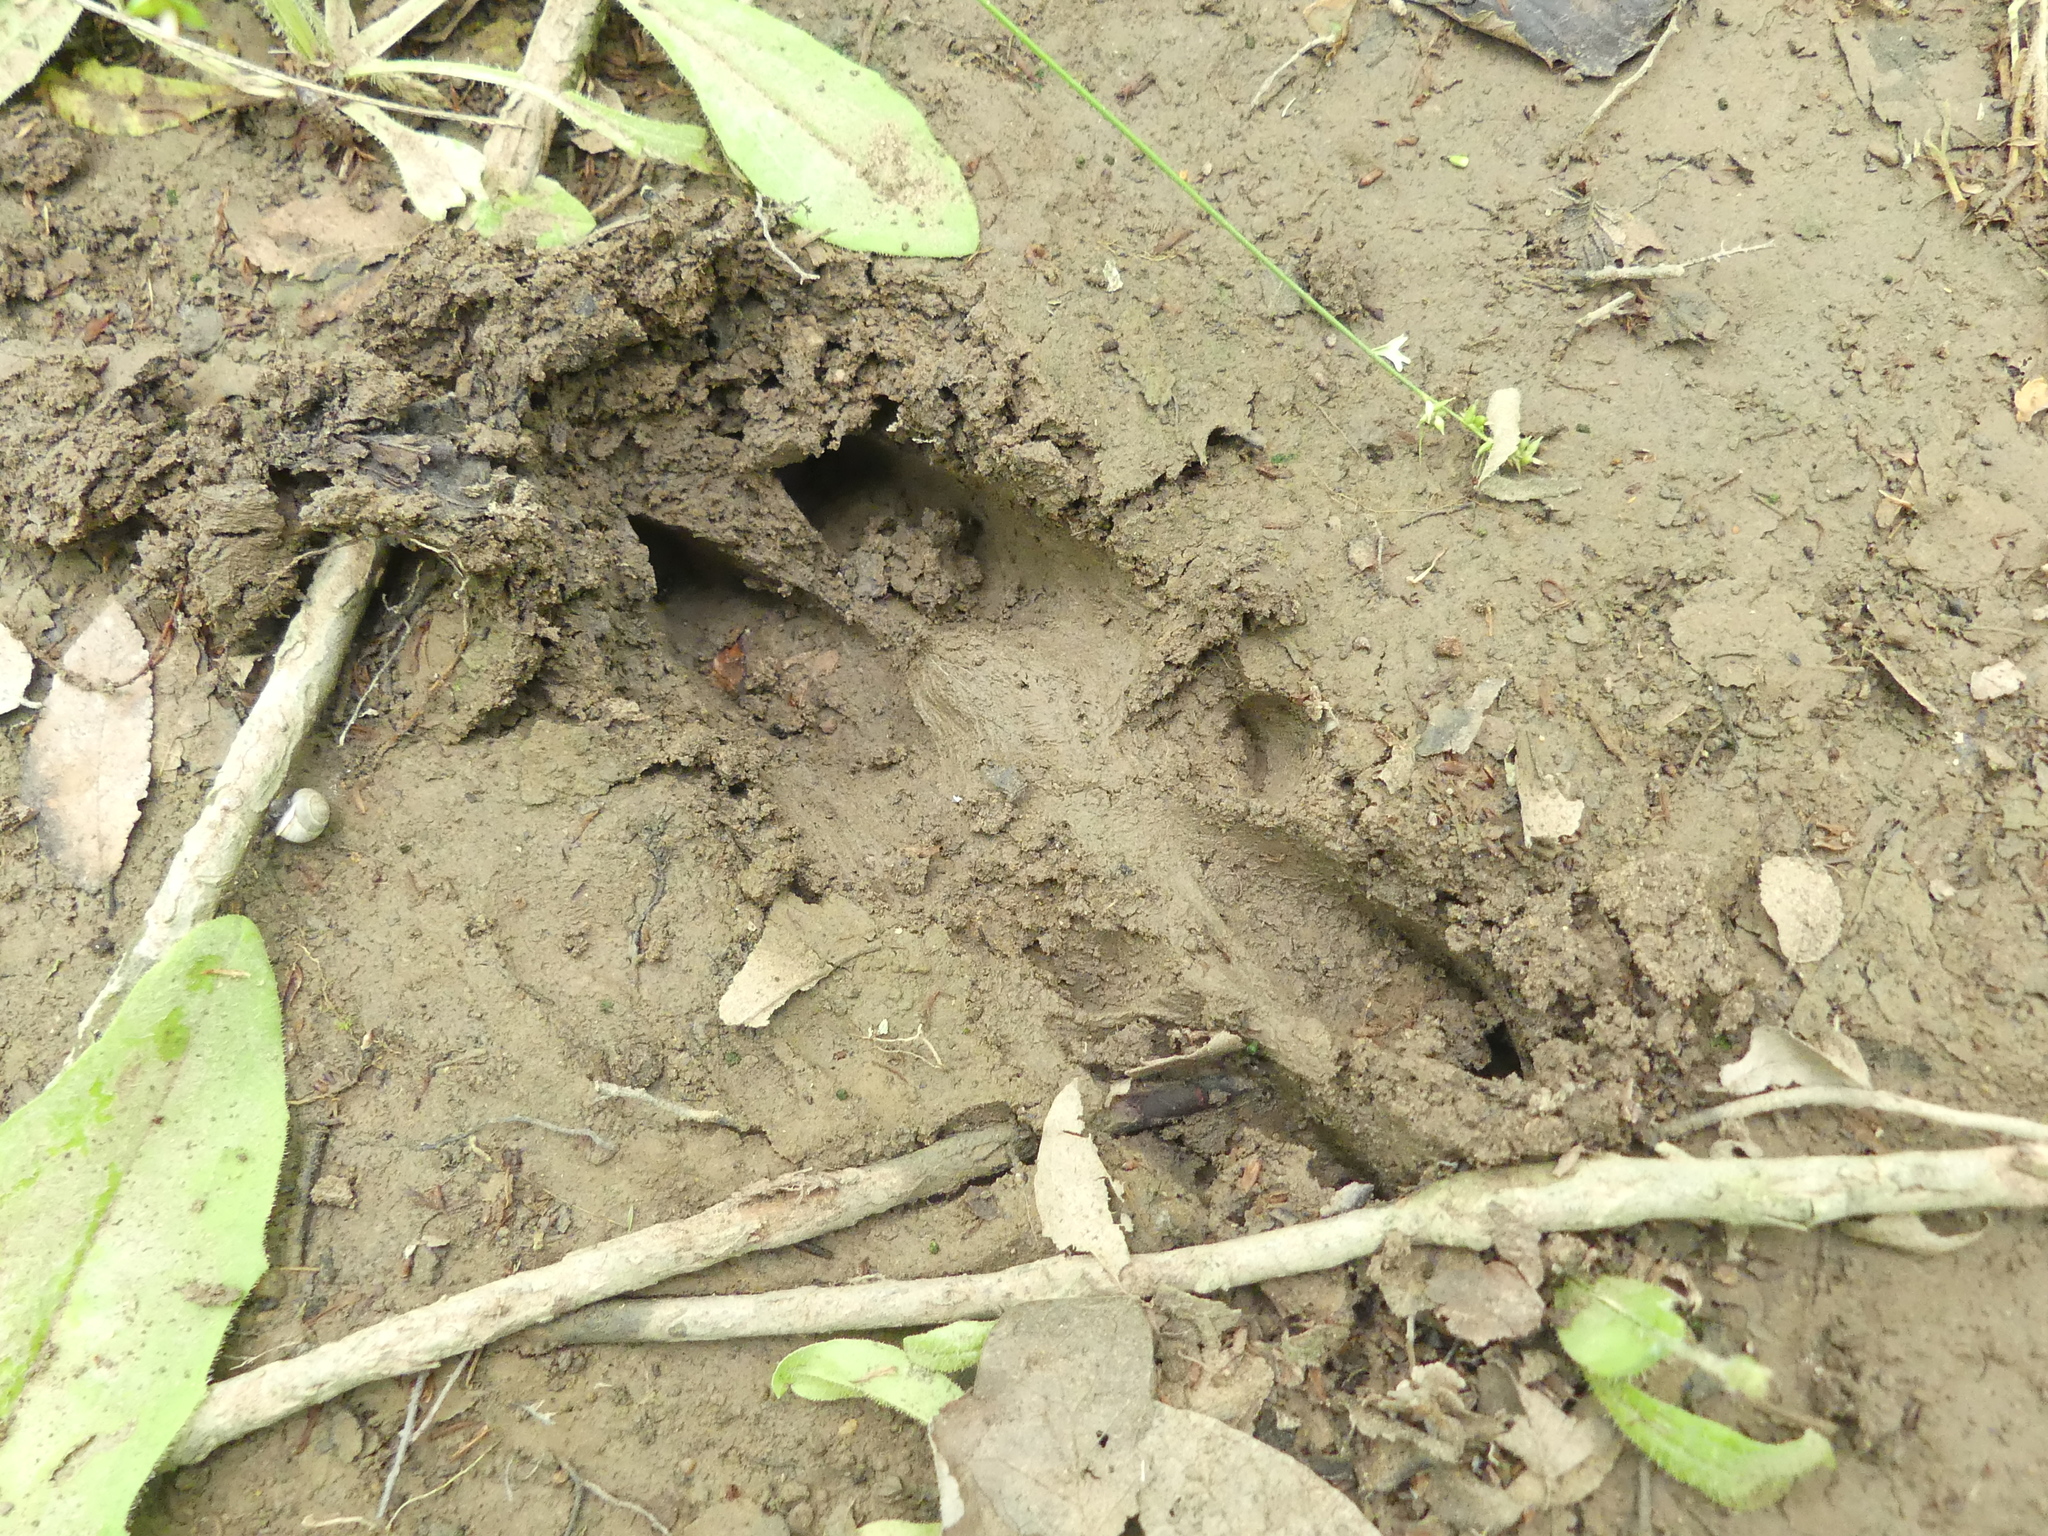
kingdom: Animalia
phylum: Chordata
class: Mammalia
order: Artiodactyla
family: Cervidae
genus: Odocoileus
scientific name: Odocoileus virginianus
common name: White-tailed deer
